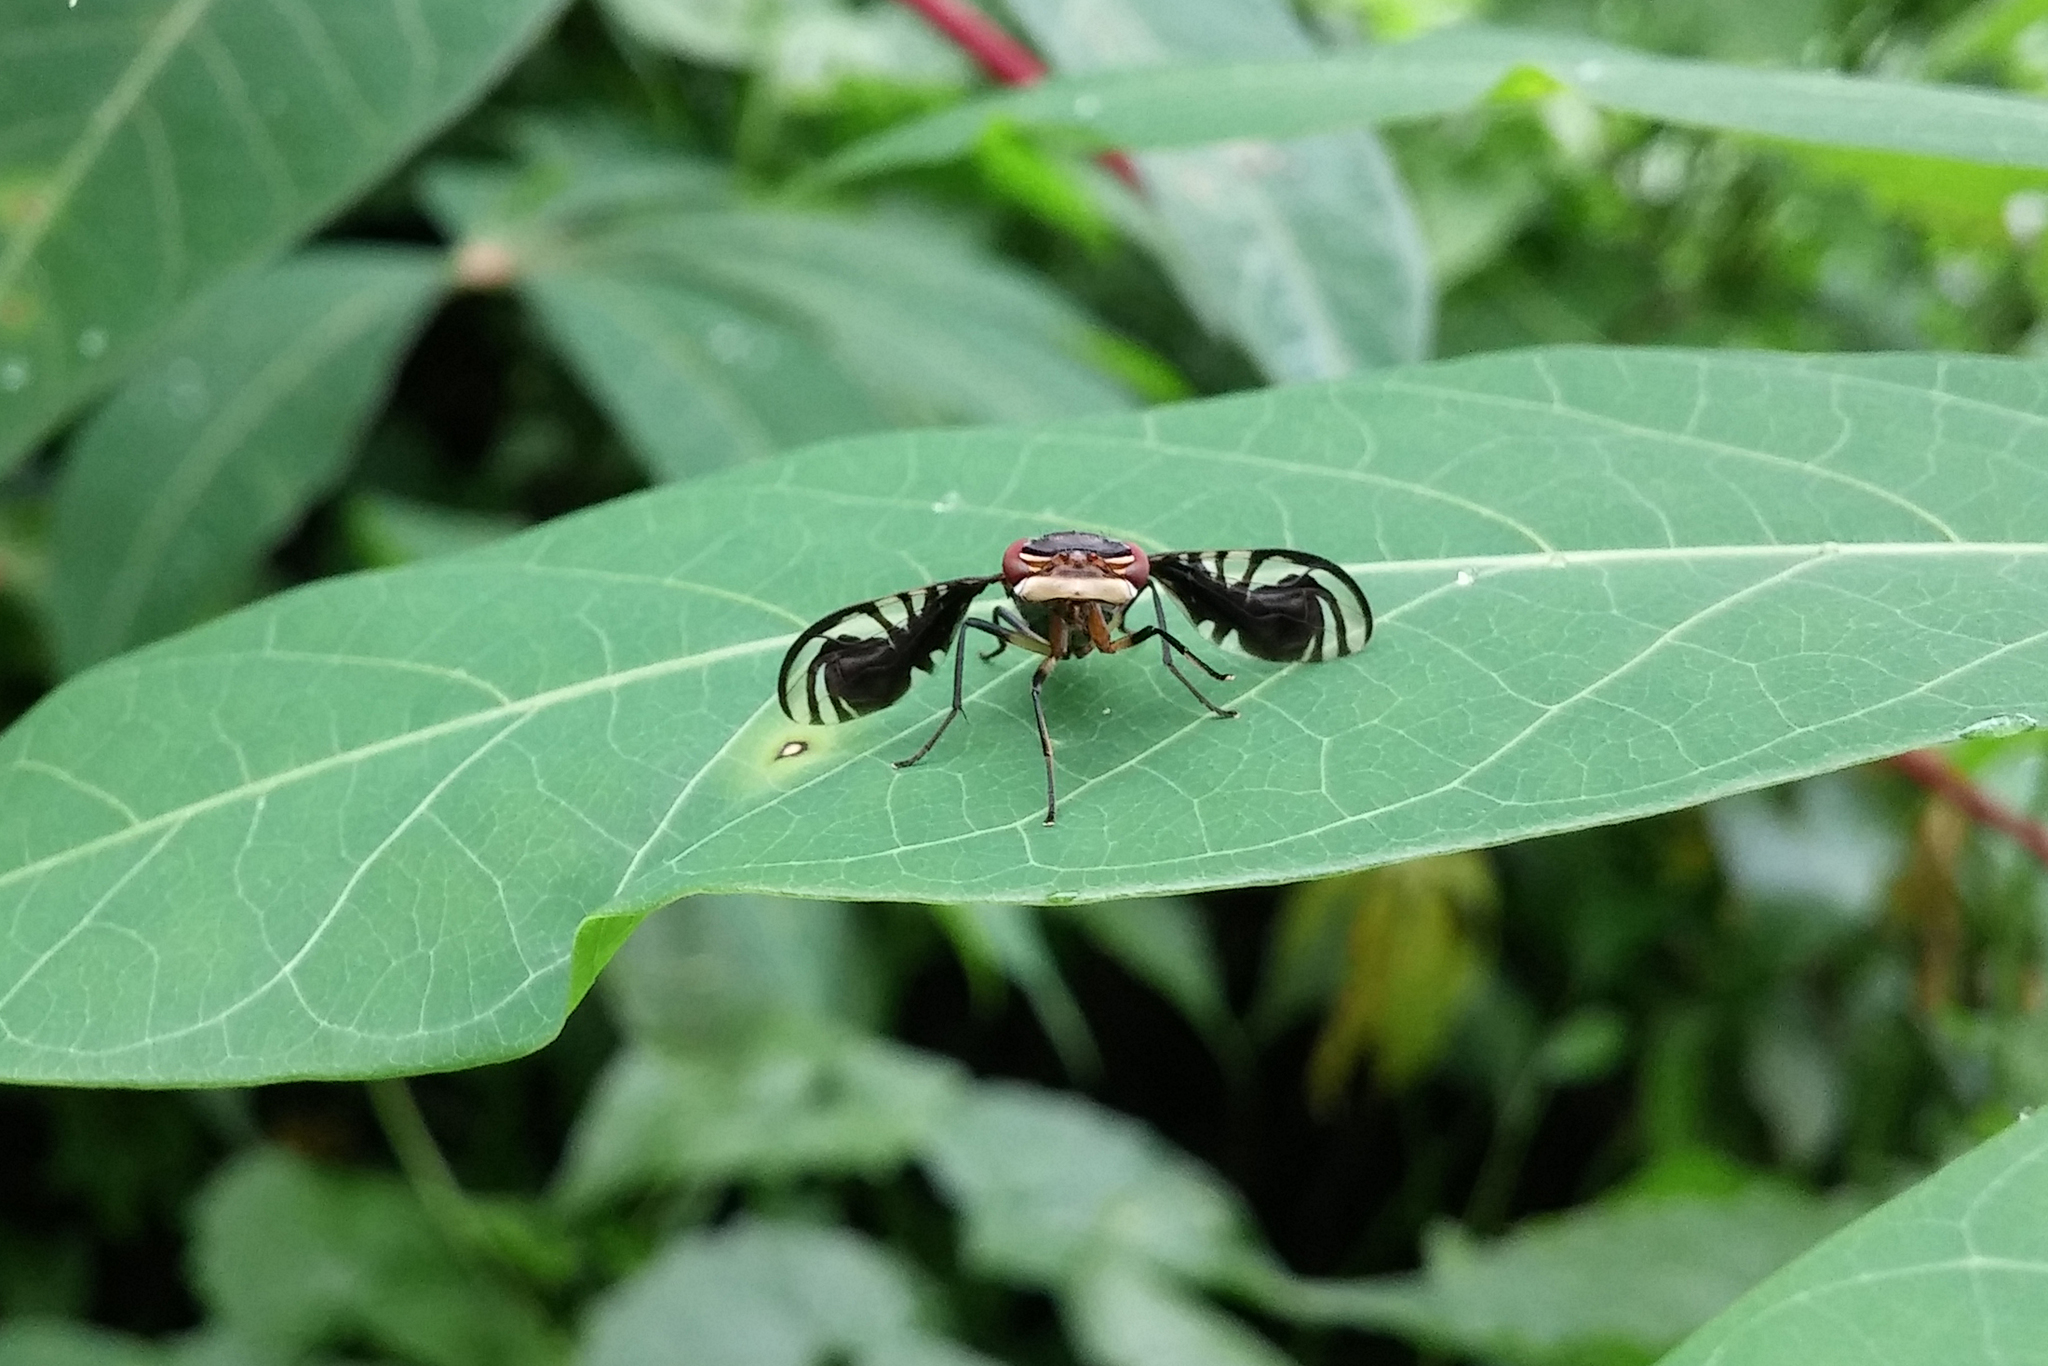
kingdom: Animalia
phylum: Arthropoda
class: Insecta
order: Diptera
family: Platystomatidae
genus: Cleitamia
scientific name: Cleitamia astrolabei
